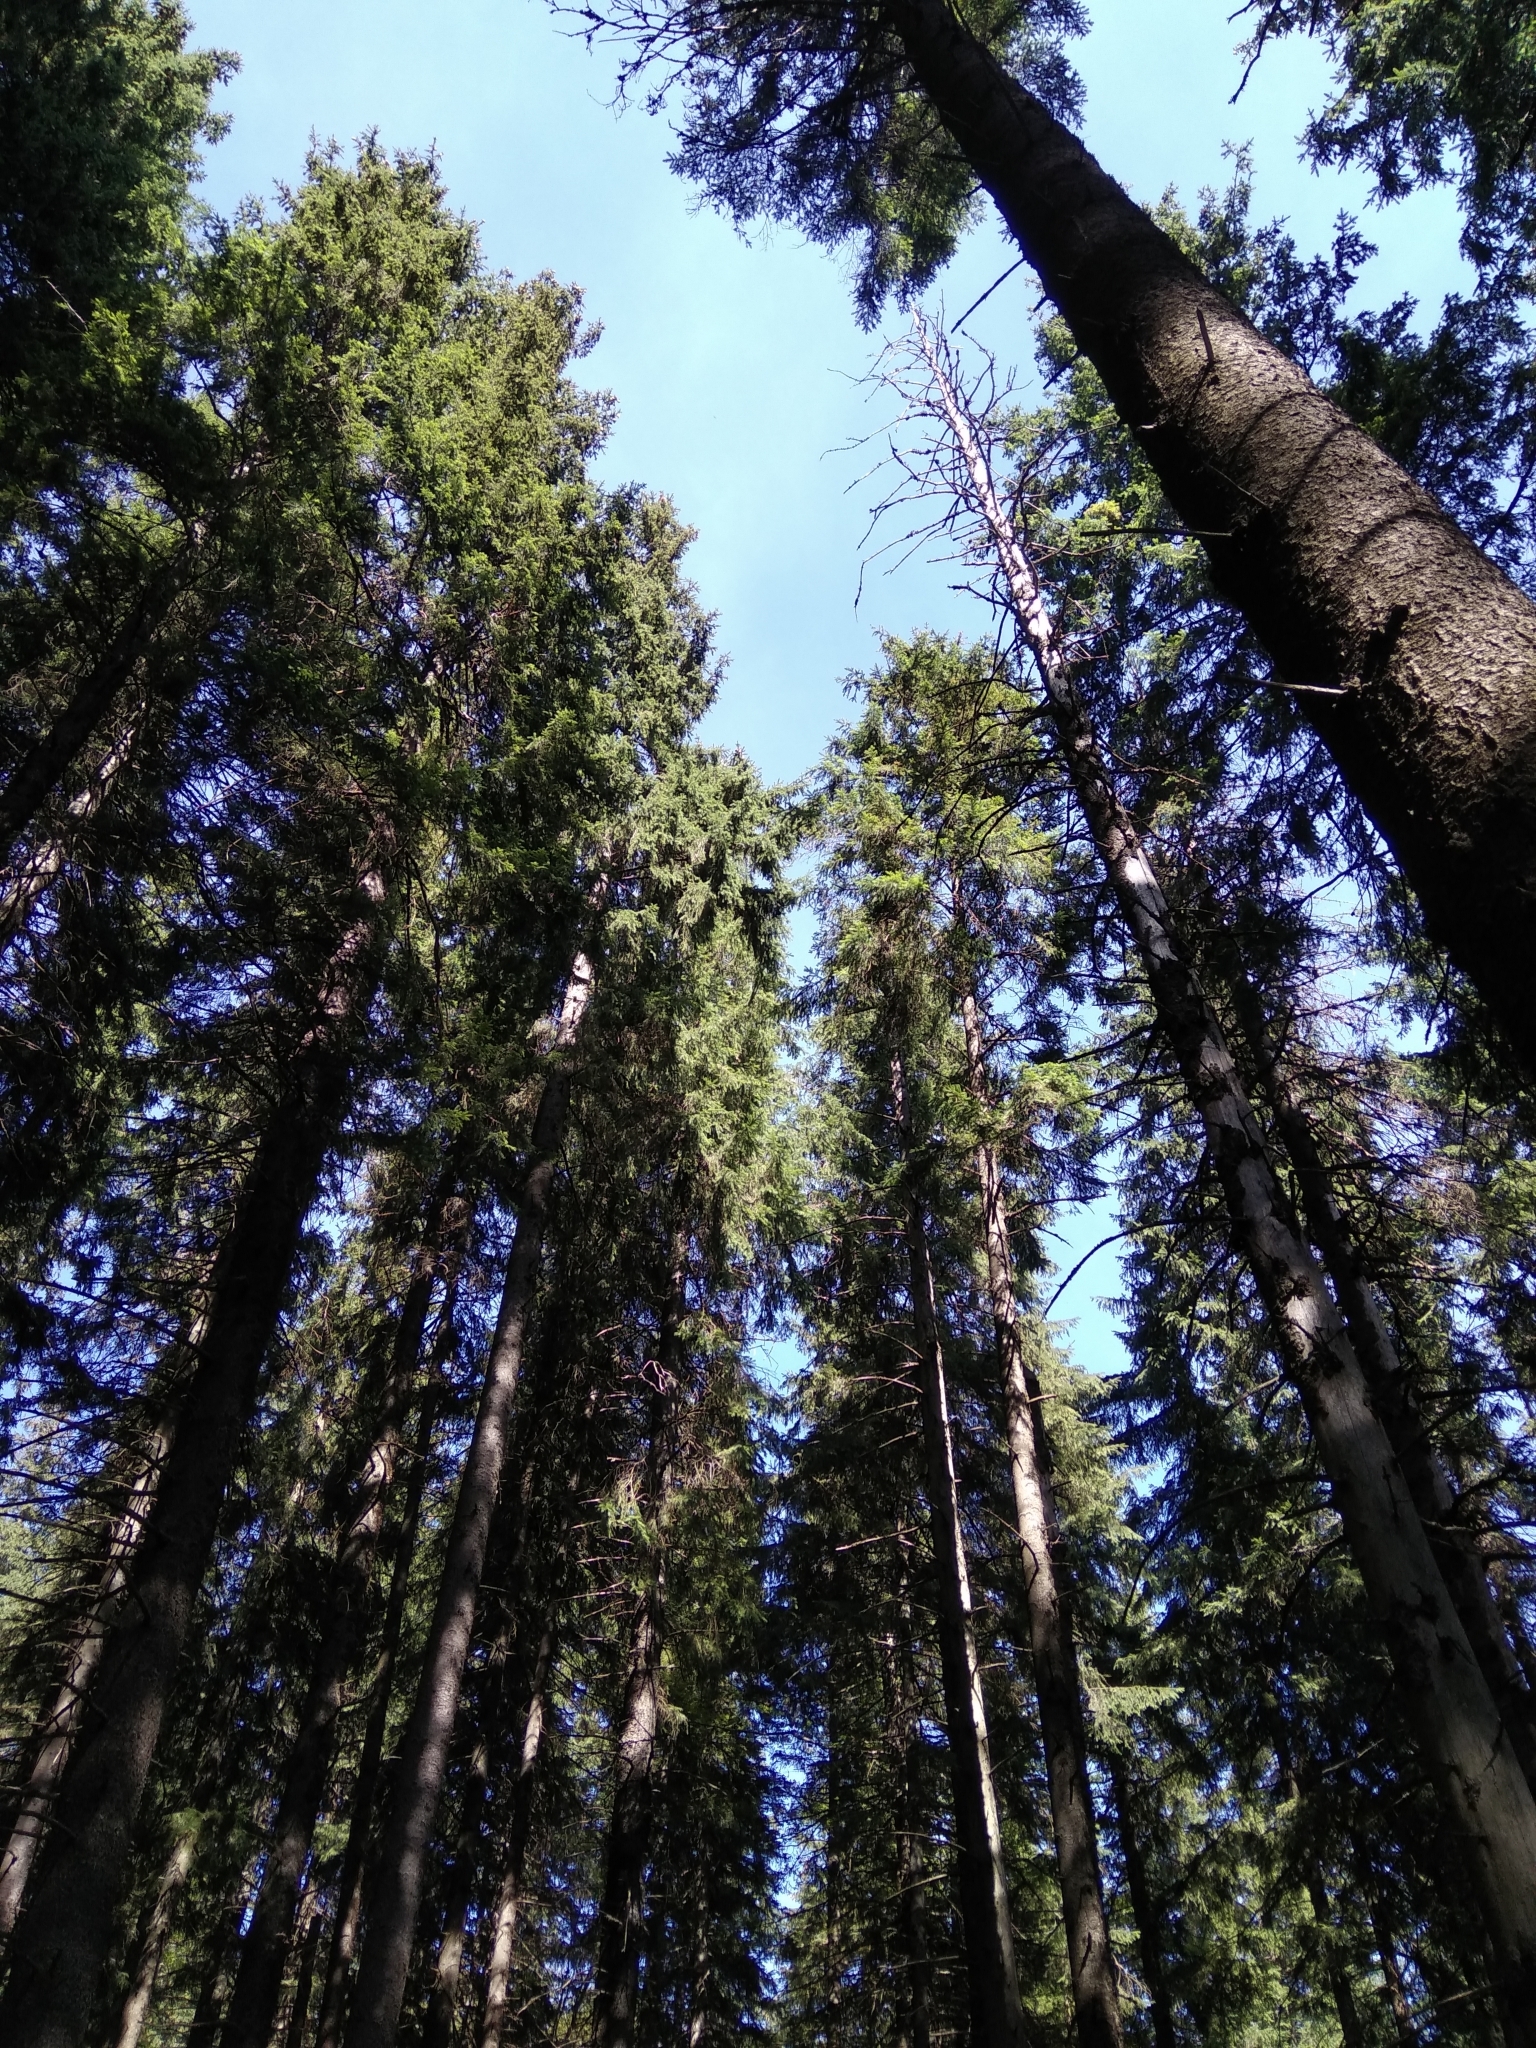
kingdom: Plantae
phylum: Tracheophyta
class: Pinopsida
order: Pinales
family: Pinaceae
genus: Picea
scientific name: Picea abies
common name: Norway spruce
